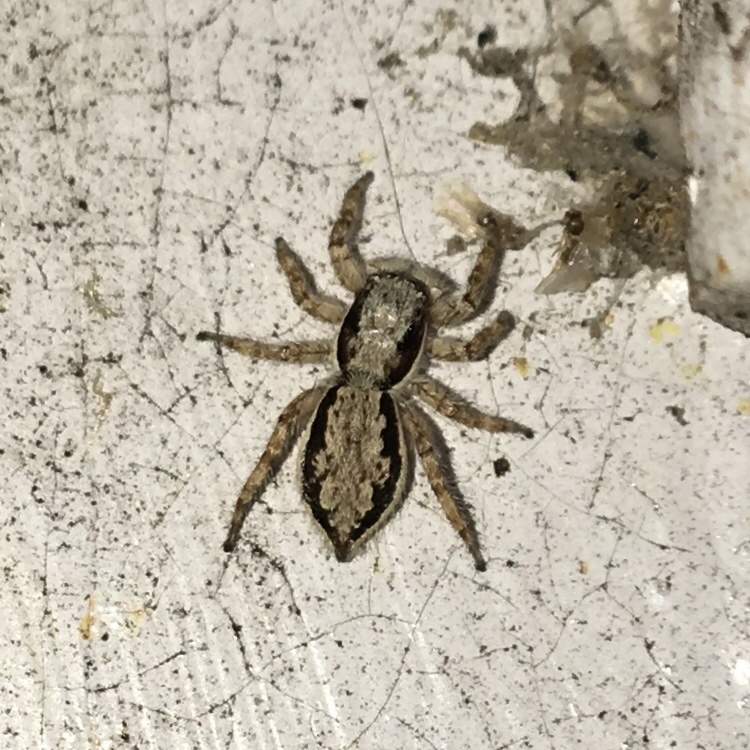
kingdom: Animalia
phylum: Arthropoda
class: Arachnida
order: Araneae
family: Salticidae
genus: Menemerus
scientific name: Menemerus bivittatus
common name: Gray wall jumper
